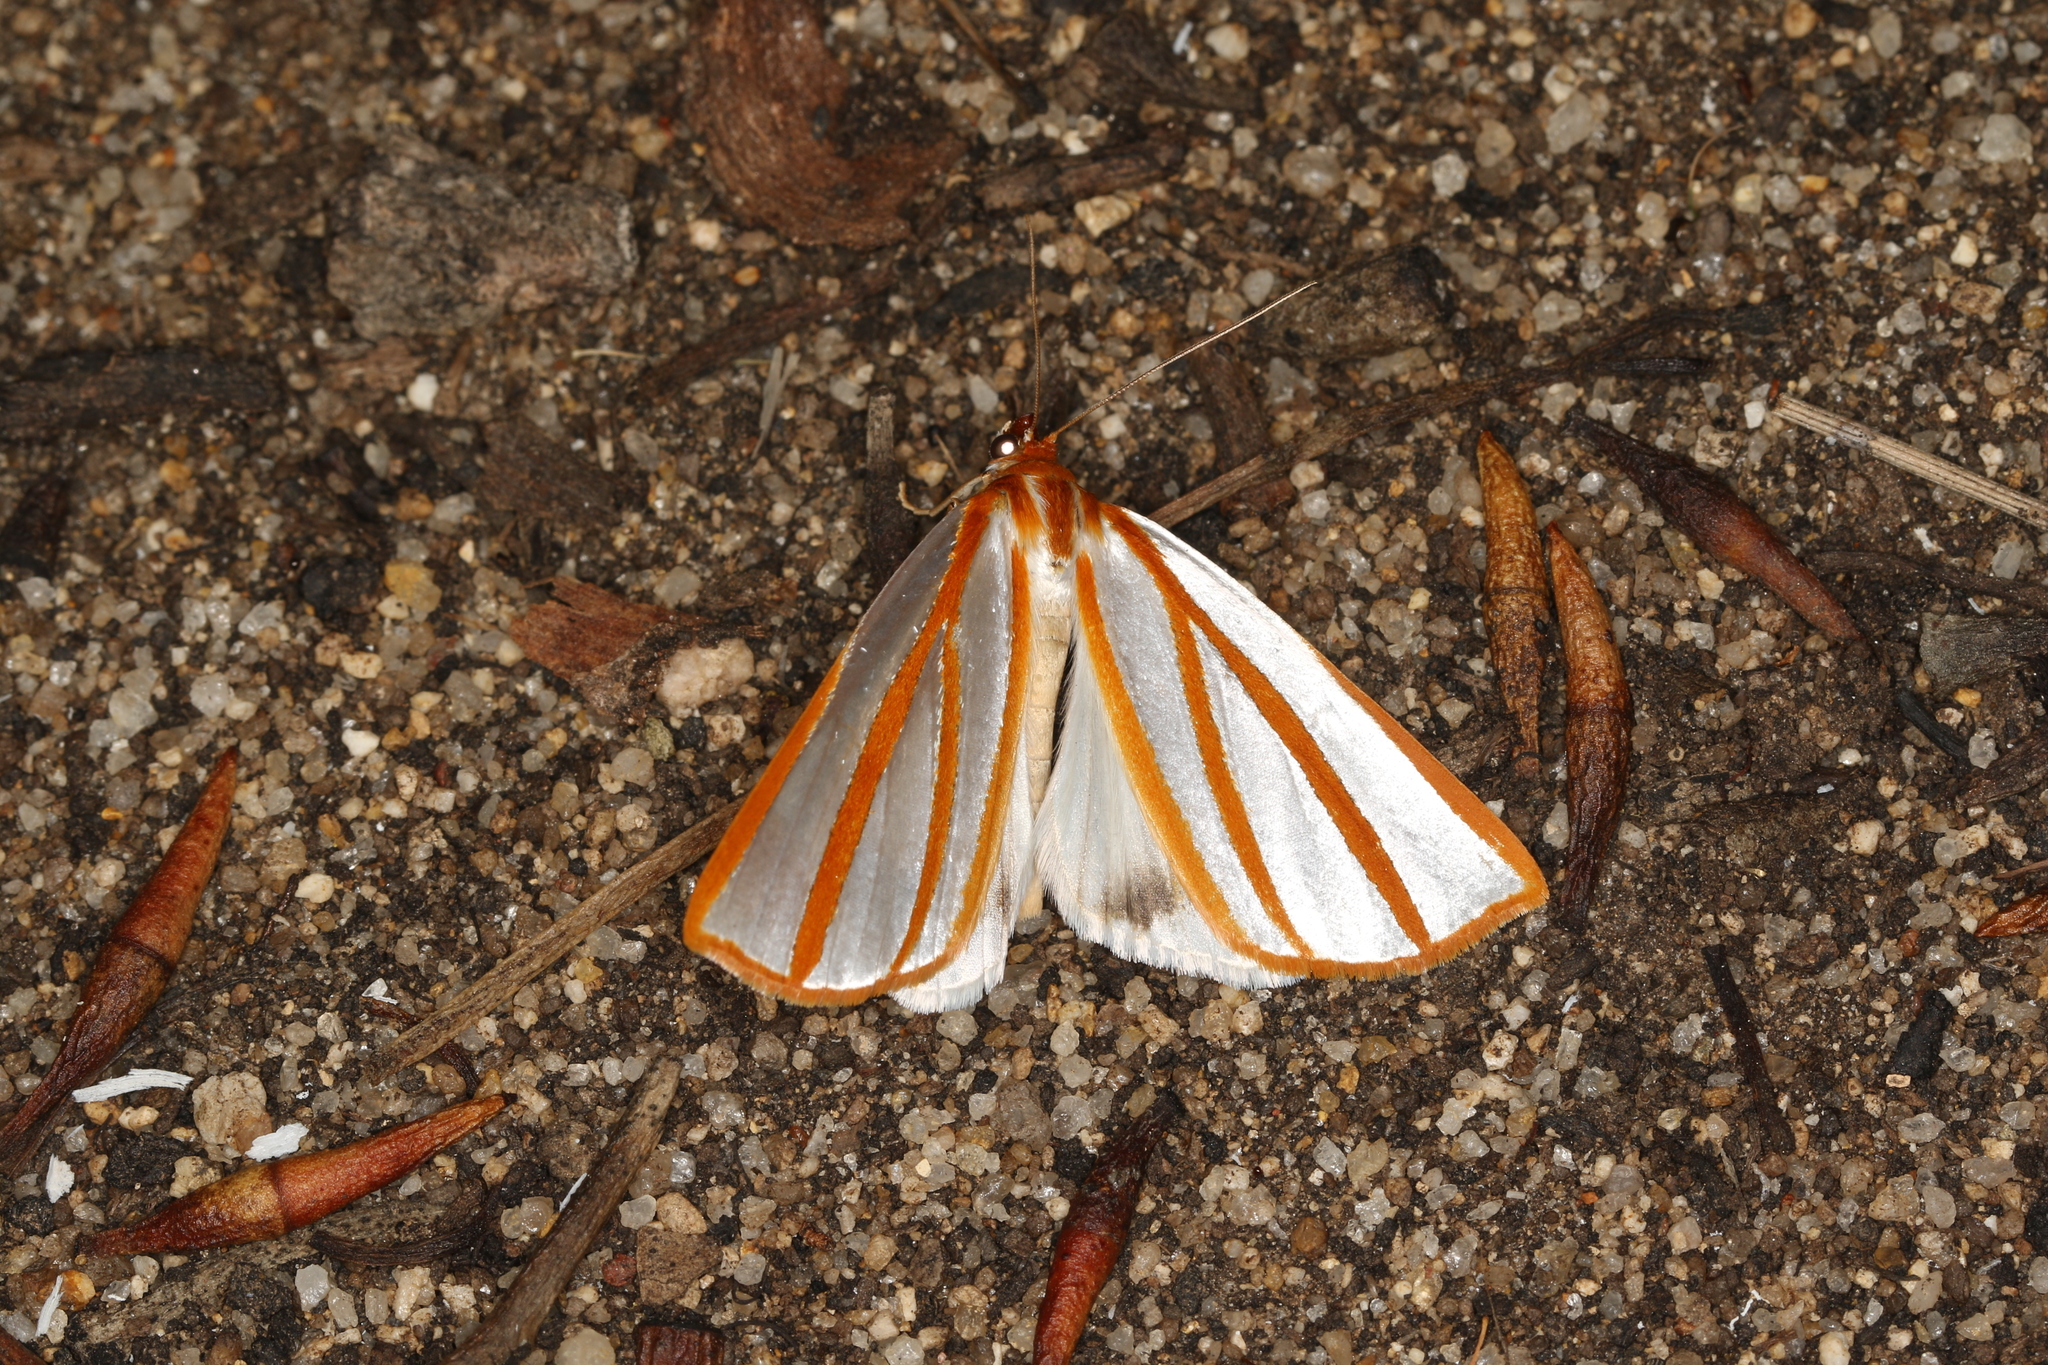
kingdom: Animalia
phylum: Arthropoda
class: Insecta
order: Lepidoptera
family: Geometridae
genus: Thalaina
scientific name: Thalaina tetraclada
